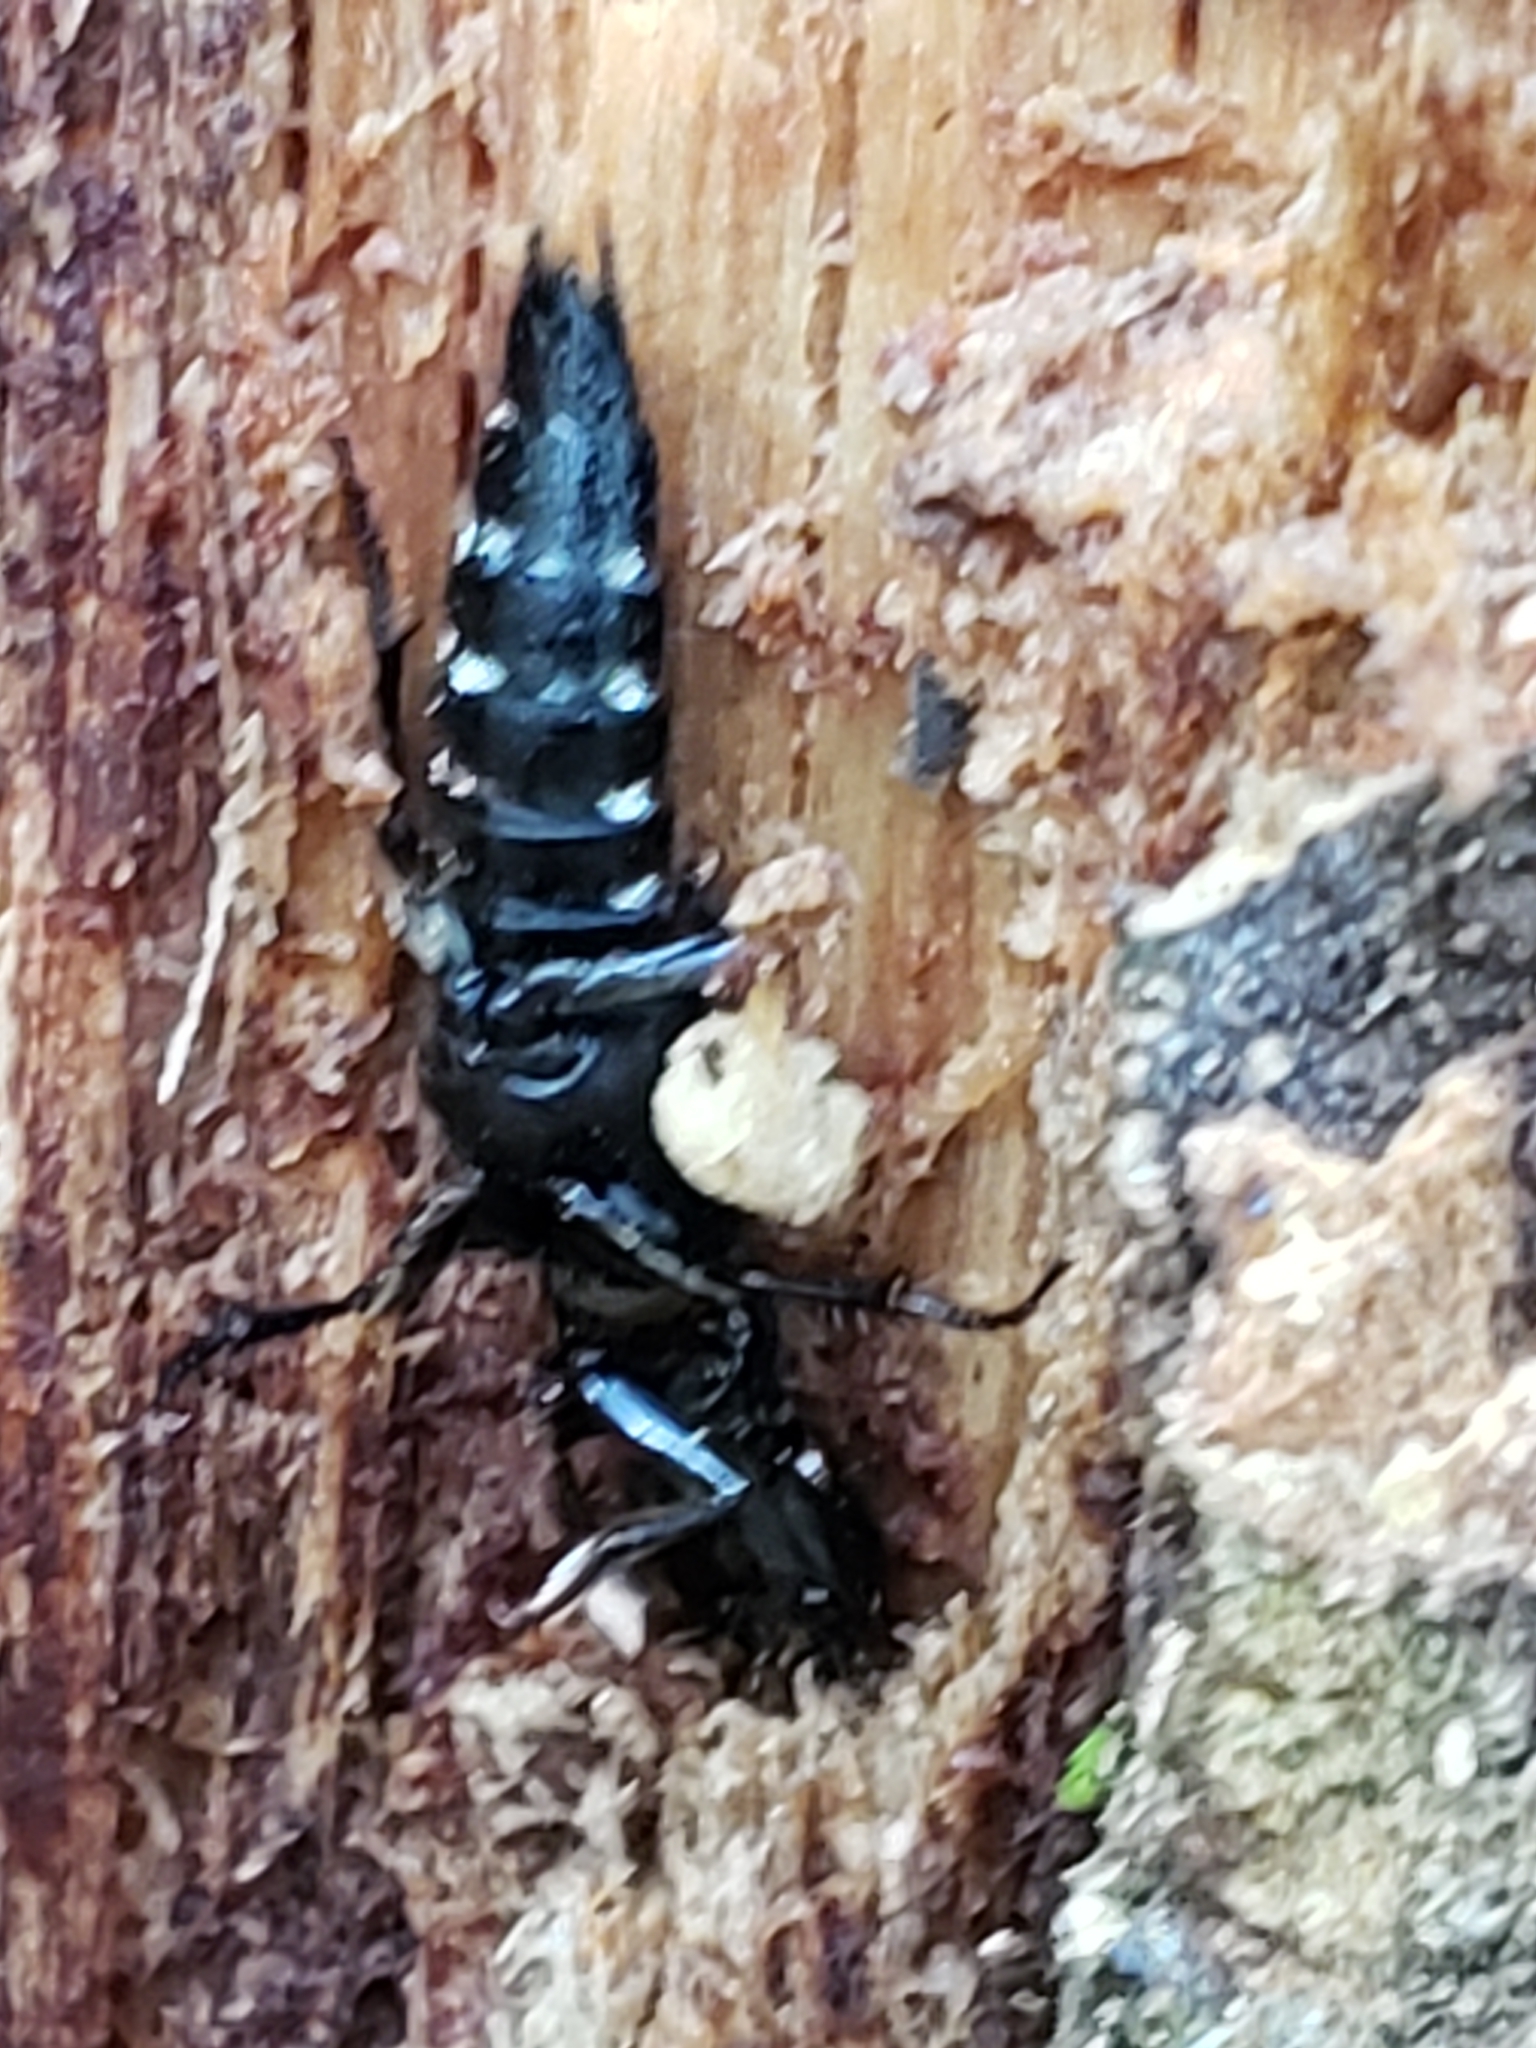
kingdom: Animalia
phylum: Arthropoda
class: Insecta
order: Coleoptera
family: Staphylinidae
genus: Platydracus
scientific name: Platydracus violaceus
